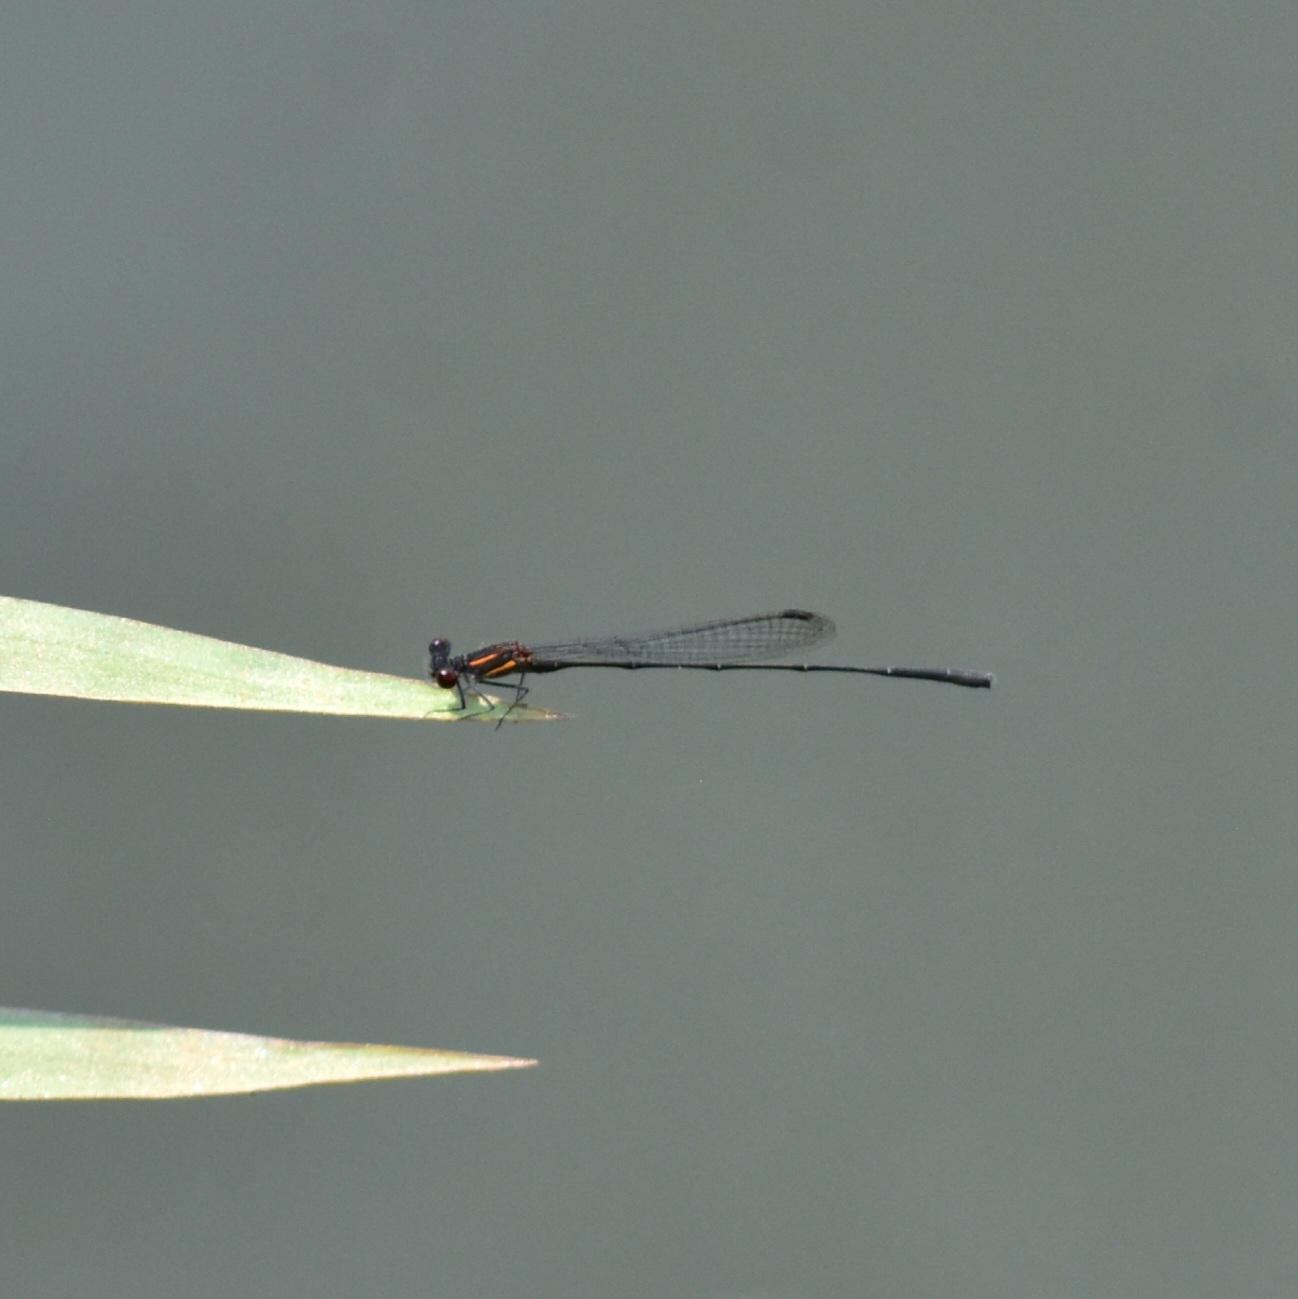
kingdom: Animalia
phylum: Arthropoda
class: Insecta
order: Odonata
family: Platycnemididae
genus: Prodasineura
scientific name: Prodasineura verticalis
